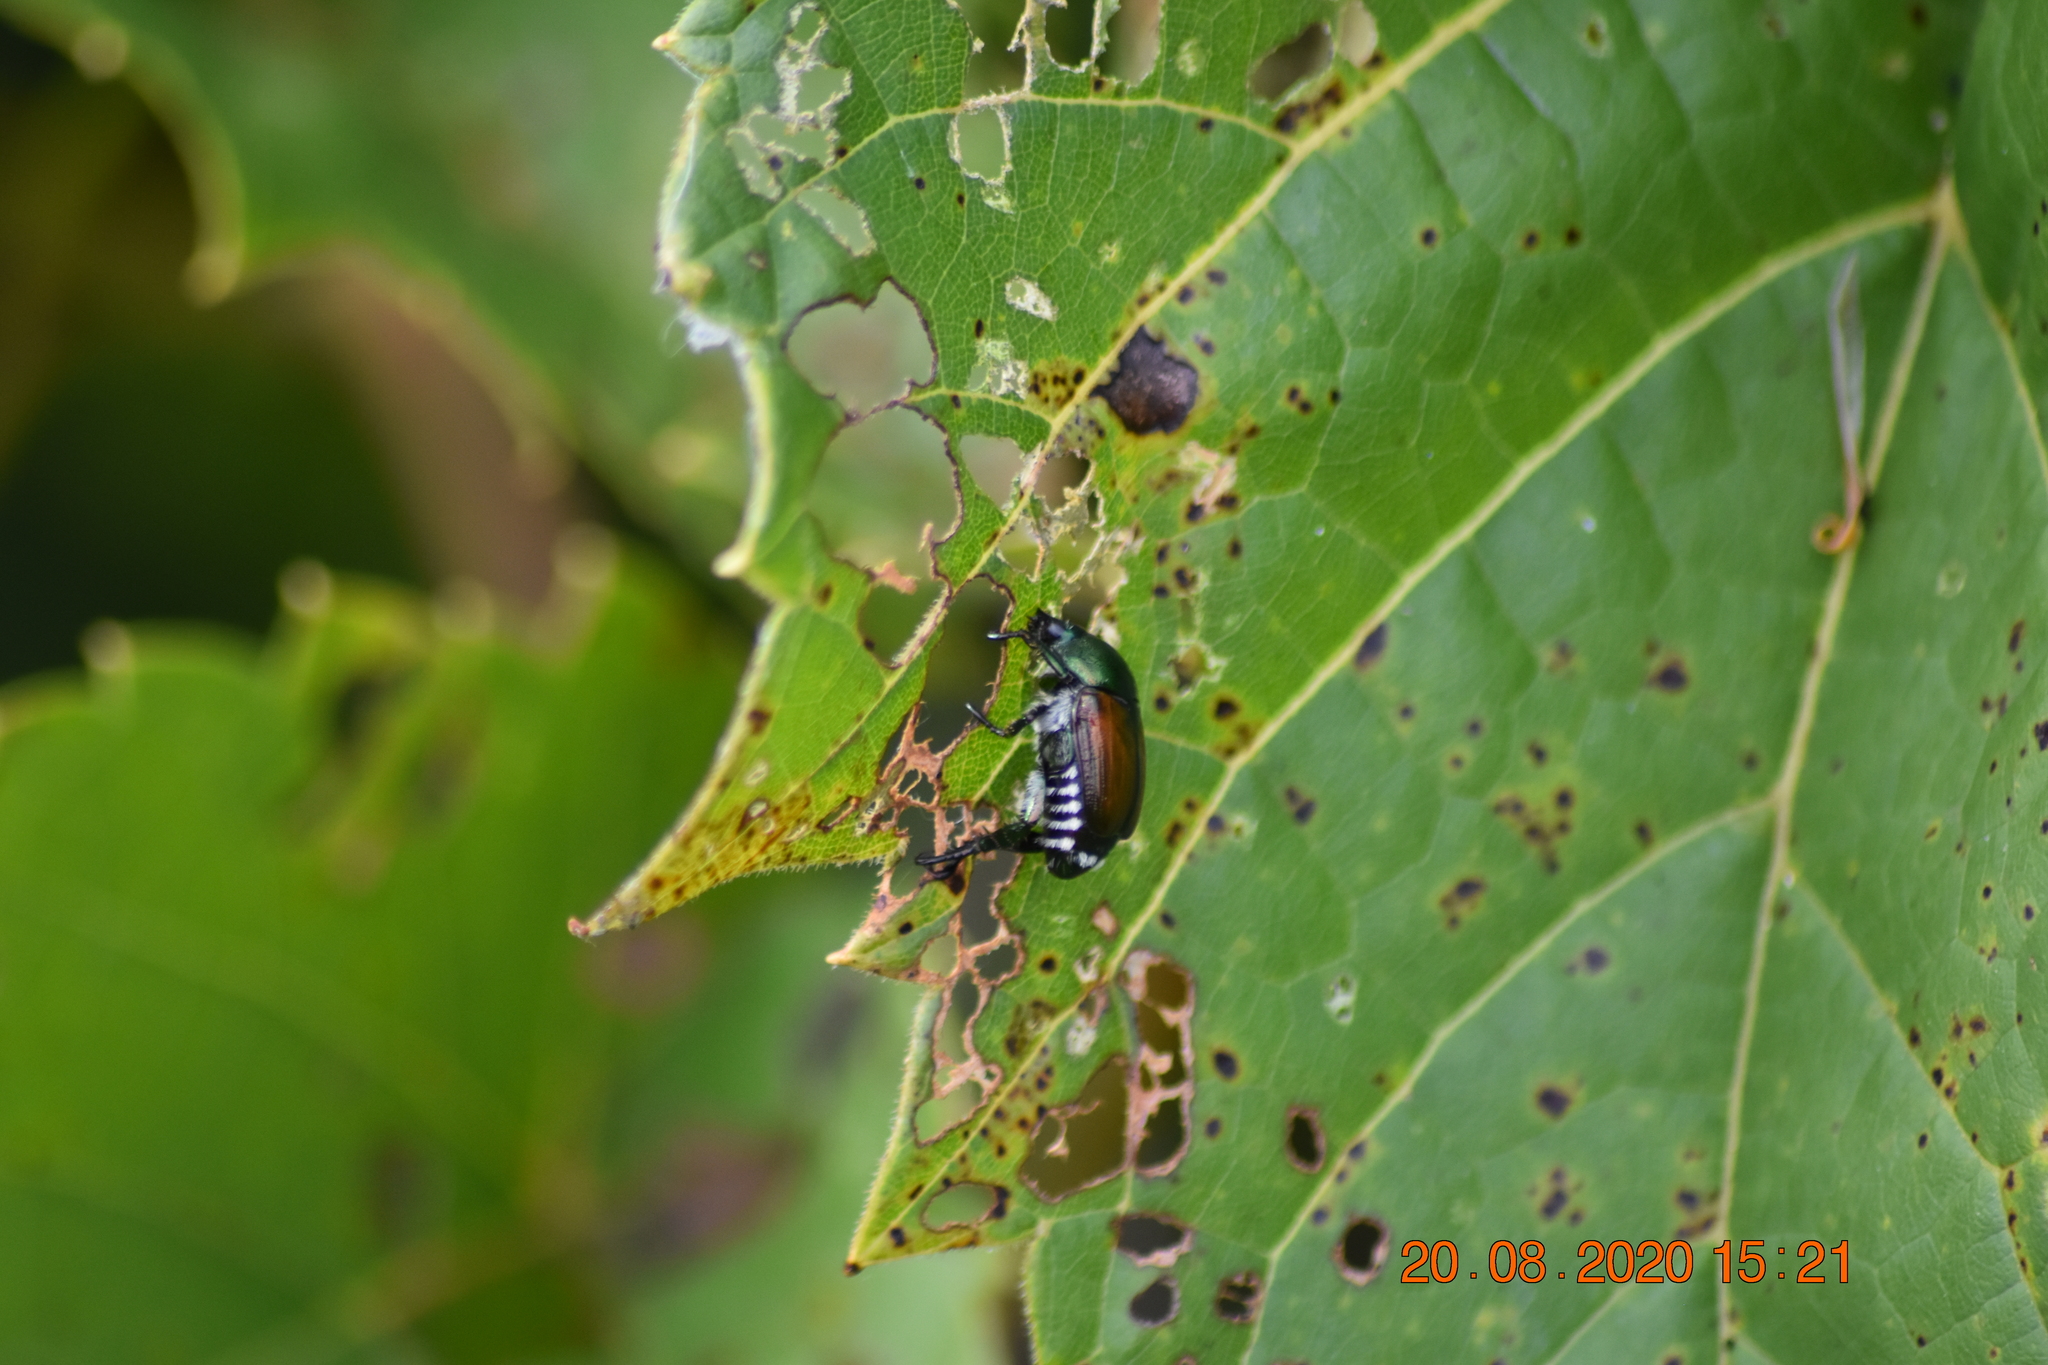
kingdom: Animalia
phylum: Arthropoda
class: Insecta
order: Coleoptera
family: Scarabaeidae
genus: Popillia
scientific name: Popillia japonica
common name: Japanese beetle
